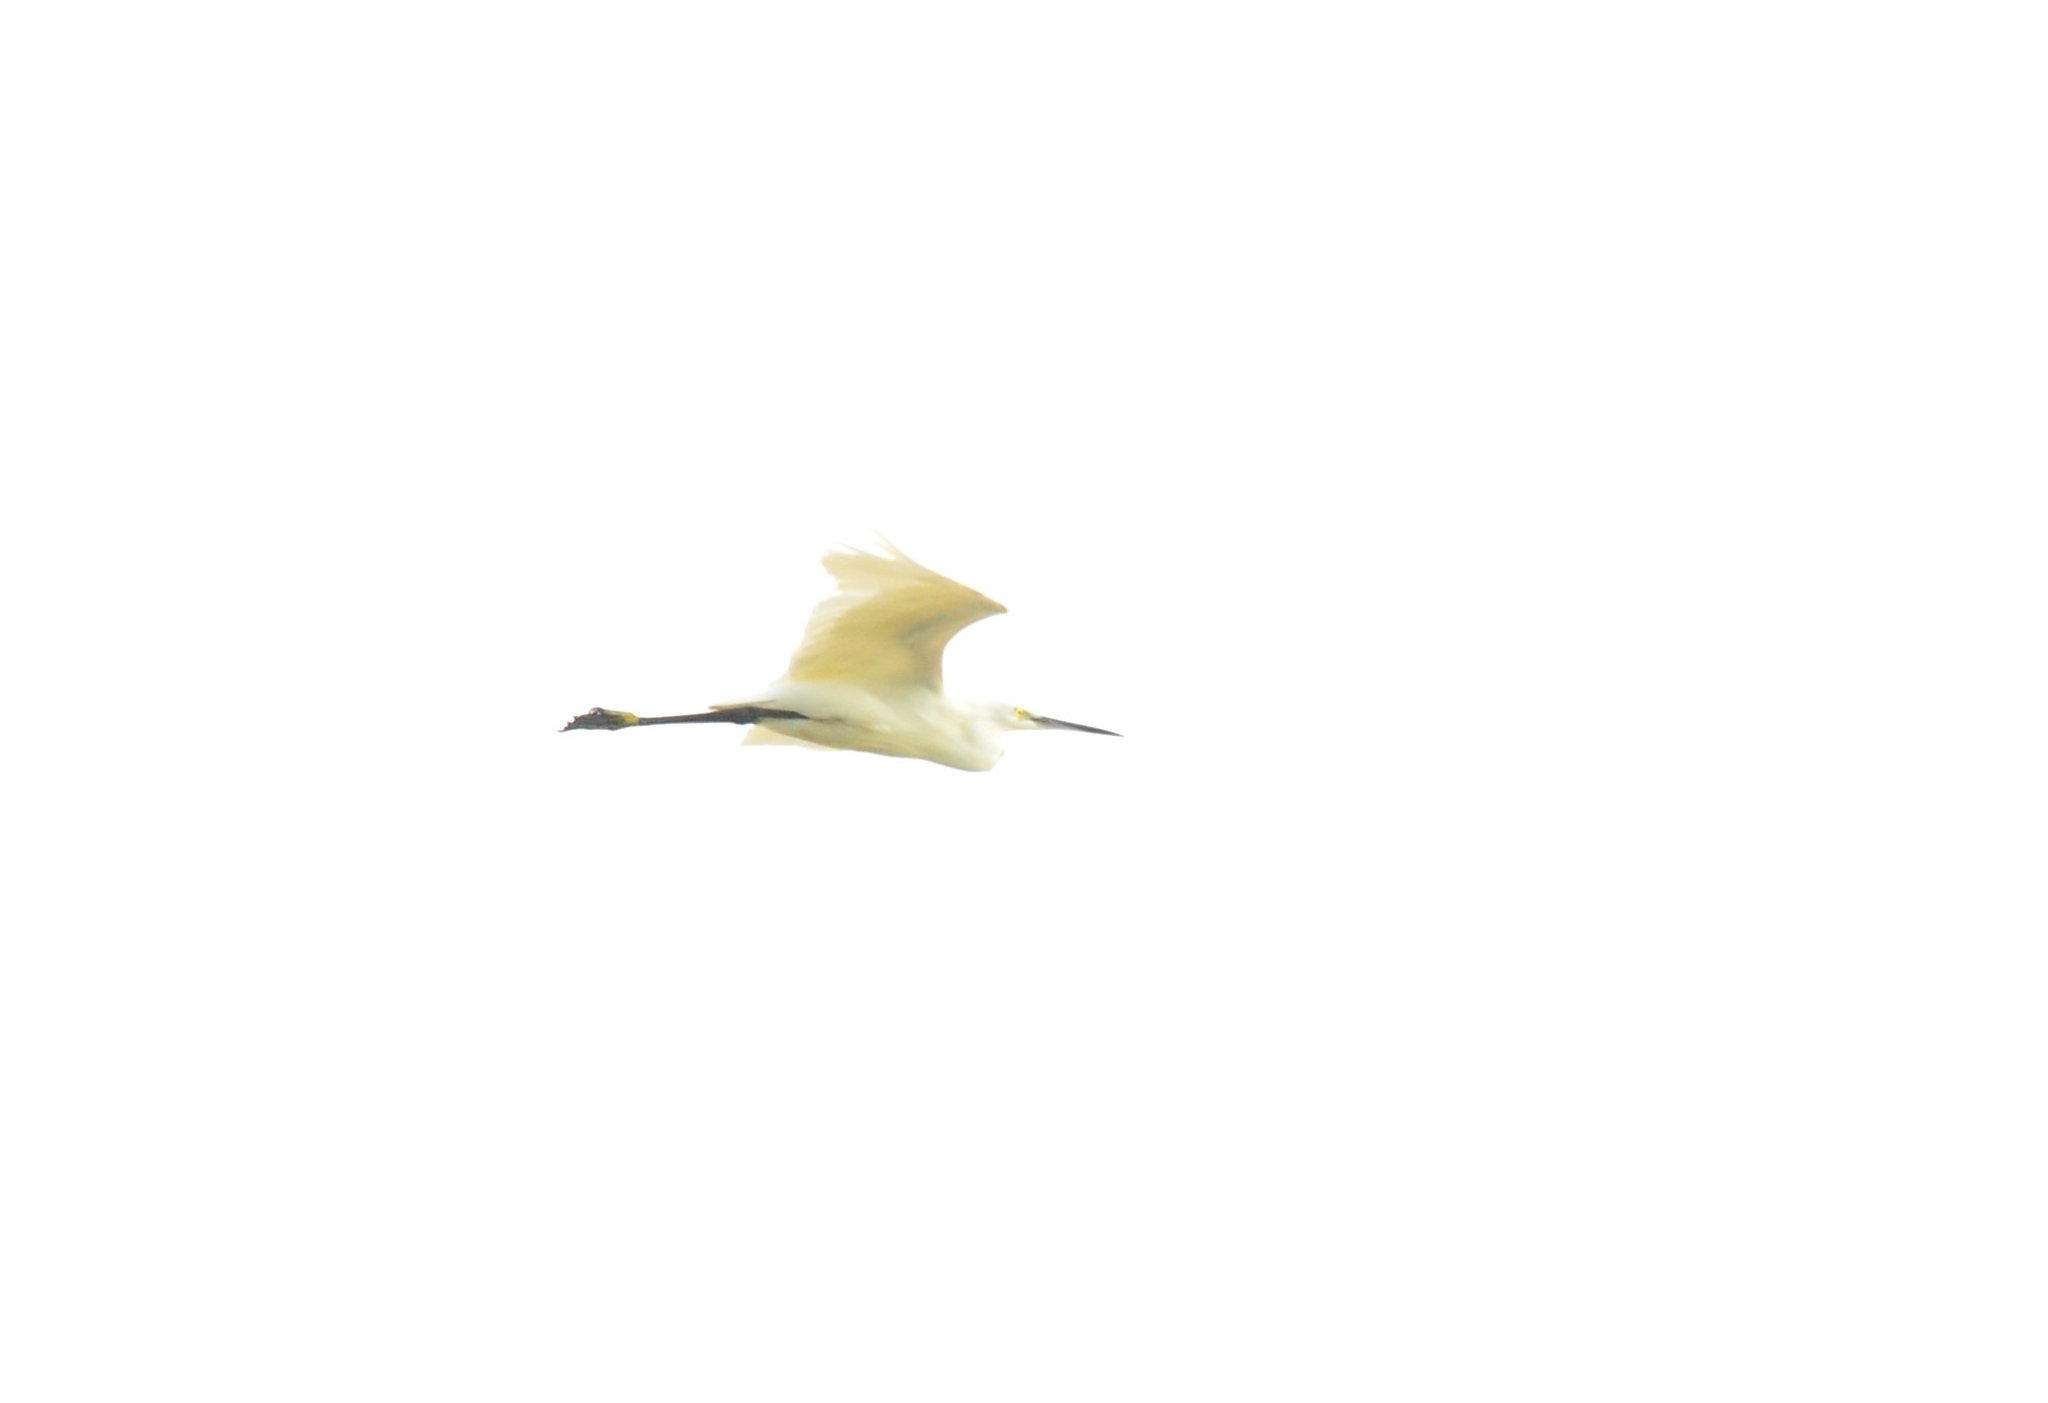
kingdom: Animalia
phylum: Chordata
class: Aves
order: Pelecaniformes
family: Ardeidae
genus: Egretta
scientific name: Egretta garzetta
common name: Little egret
